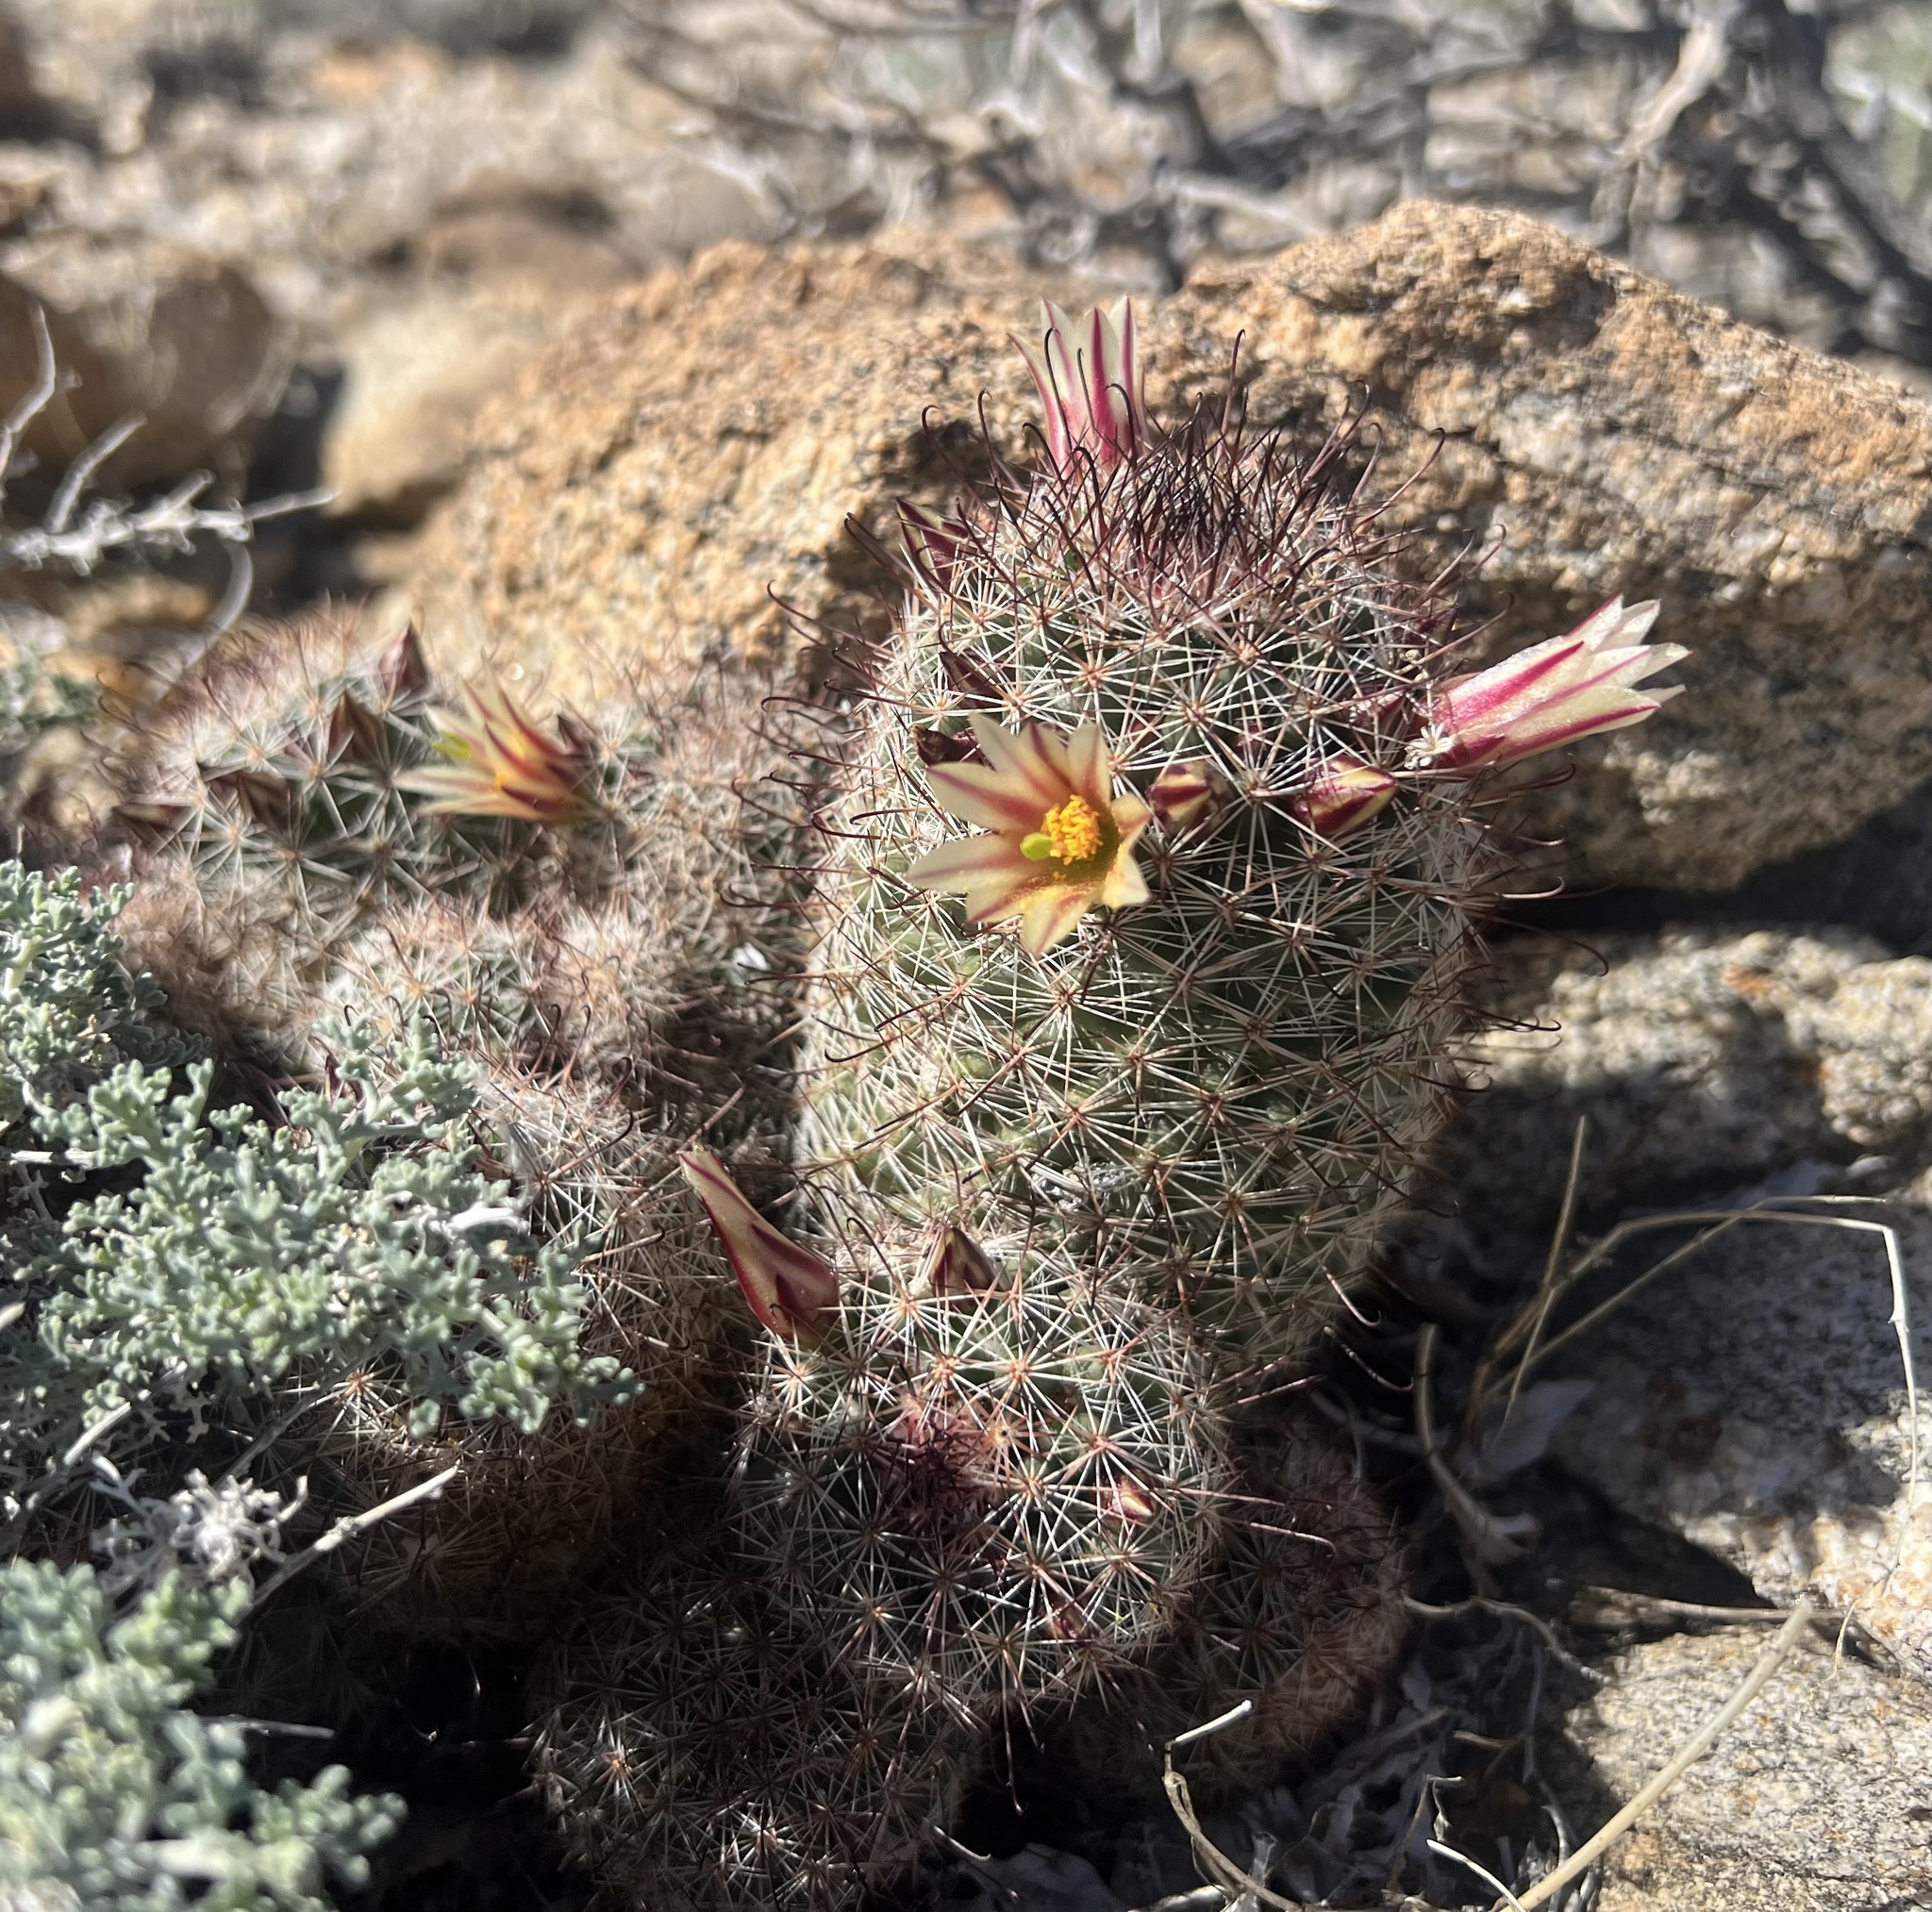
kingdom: Plantae
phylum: Tracheophyta
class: Magnoliopsida
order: Caryophyllales
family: Cactaceae
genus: Cochemiea
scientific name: Cochemiea dioica
